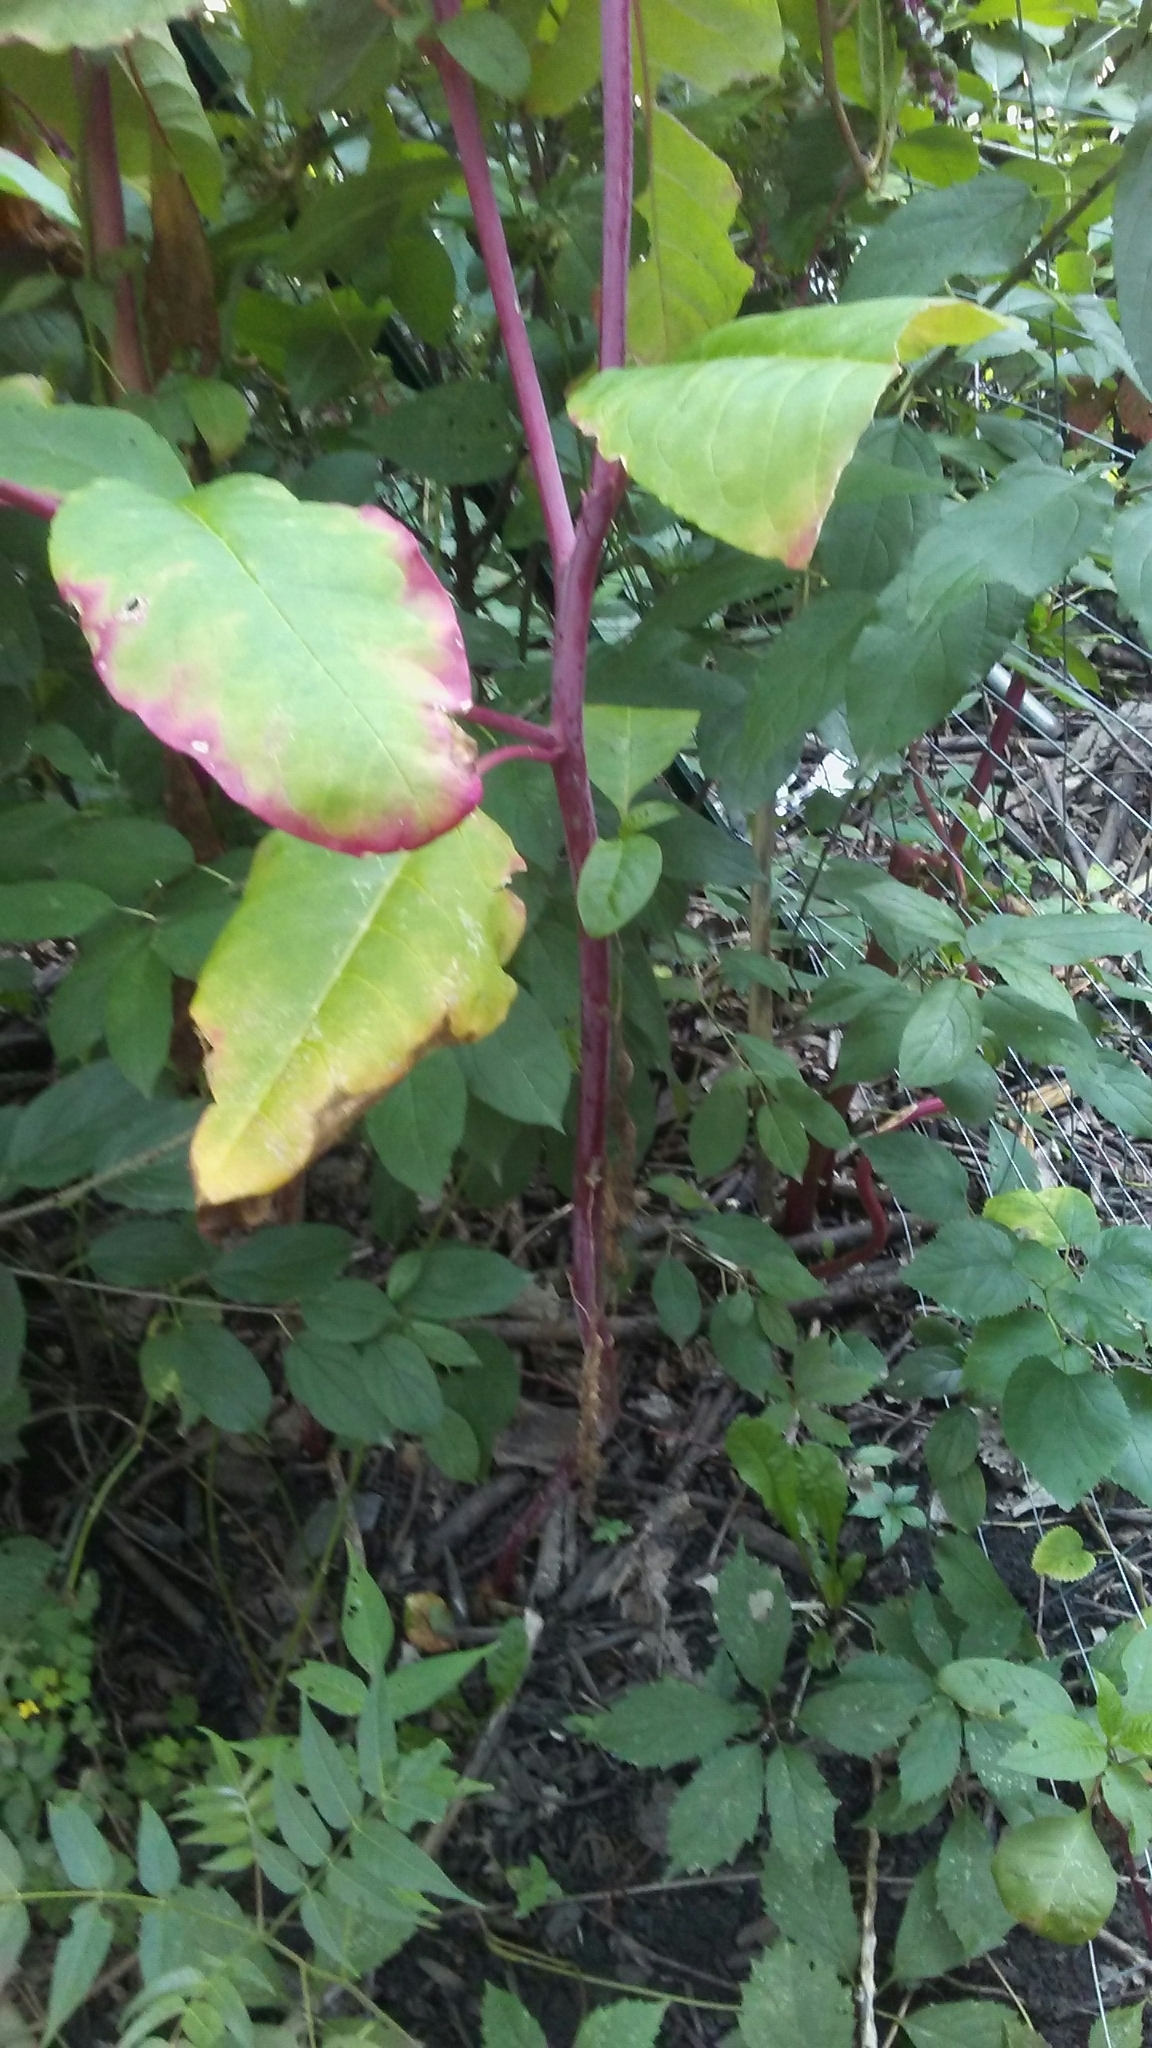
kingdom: Plantae
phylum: Tracheophyta
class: Magnoliopsida
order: Caryophyllales
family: Phytolaccaceae
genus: Phytolacca
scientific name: Phytolacca americana
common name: American pokeweed
